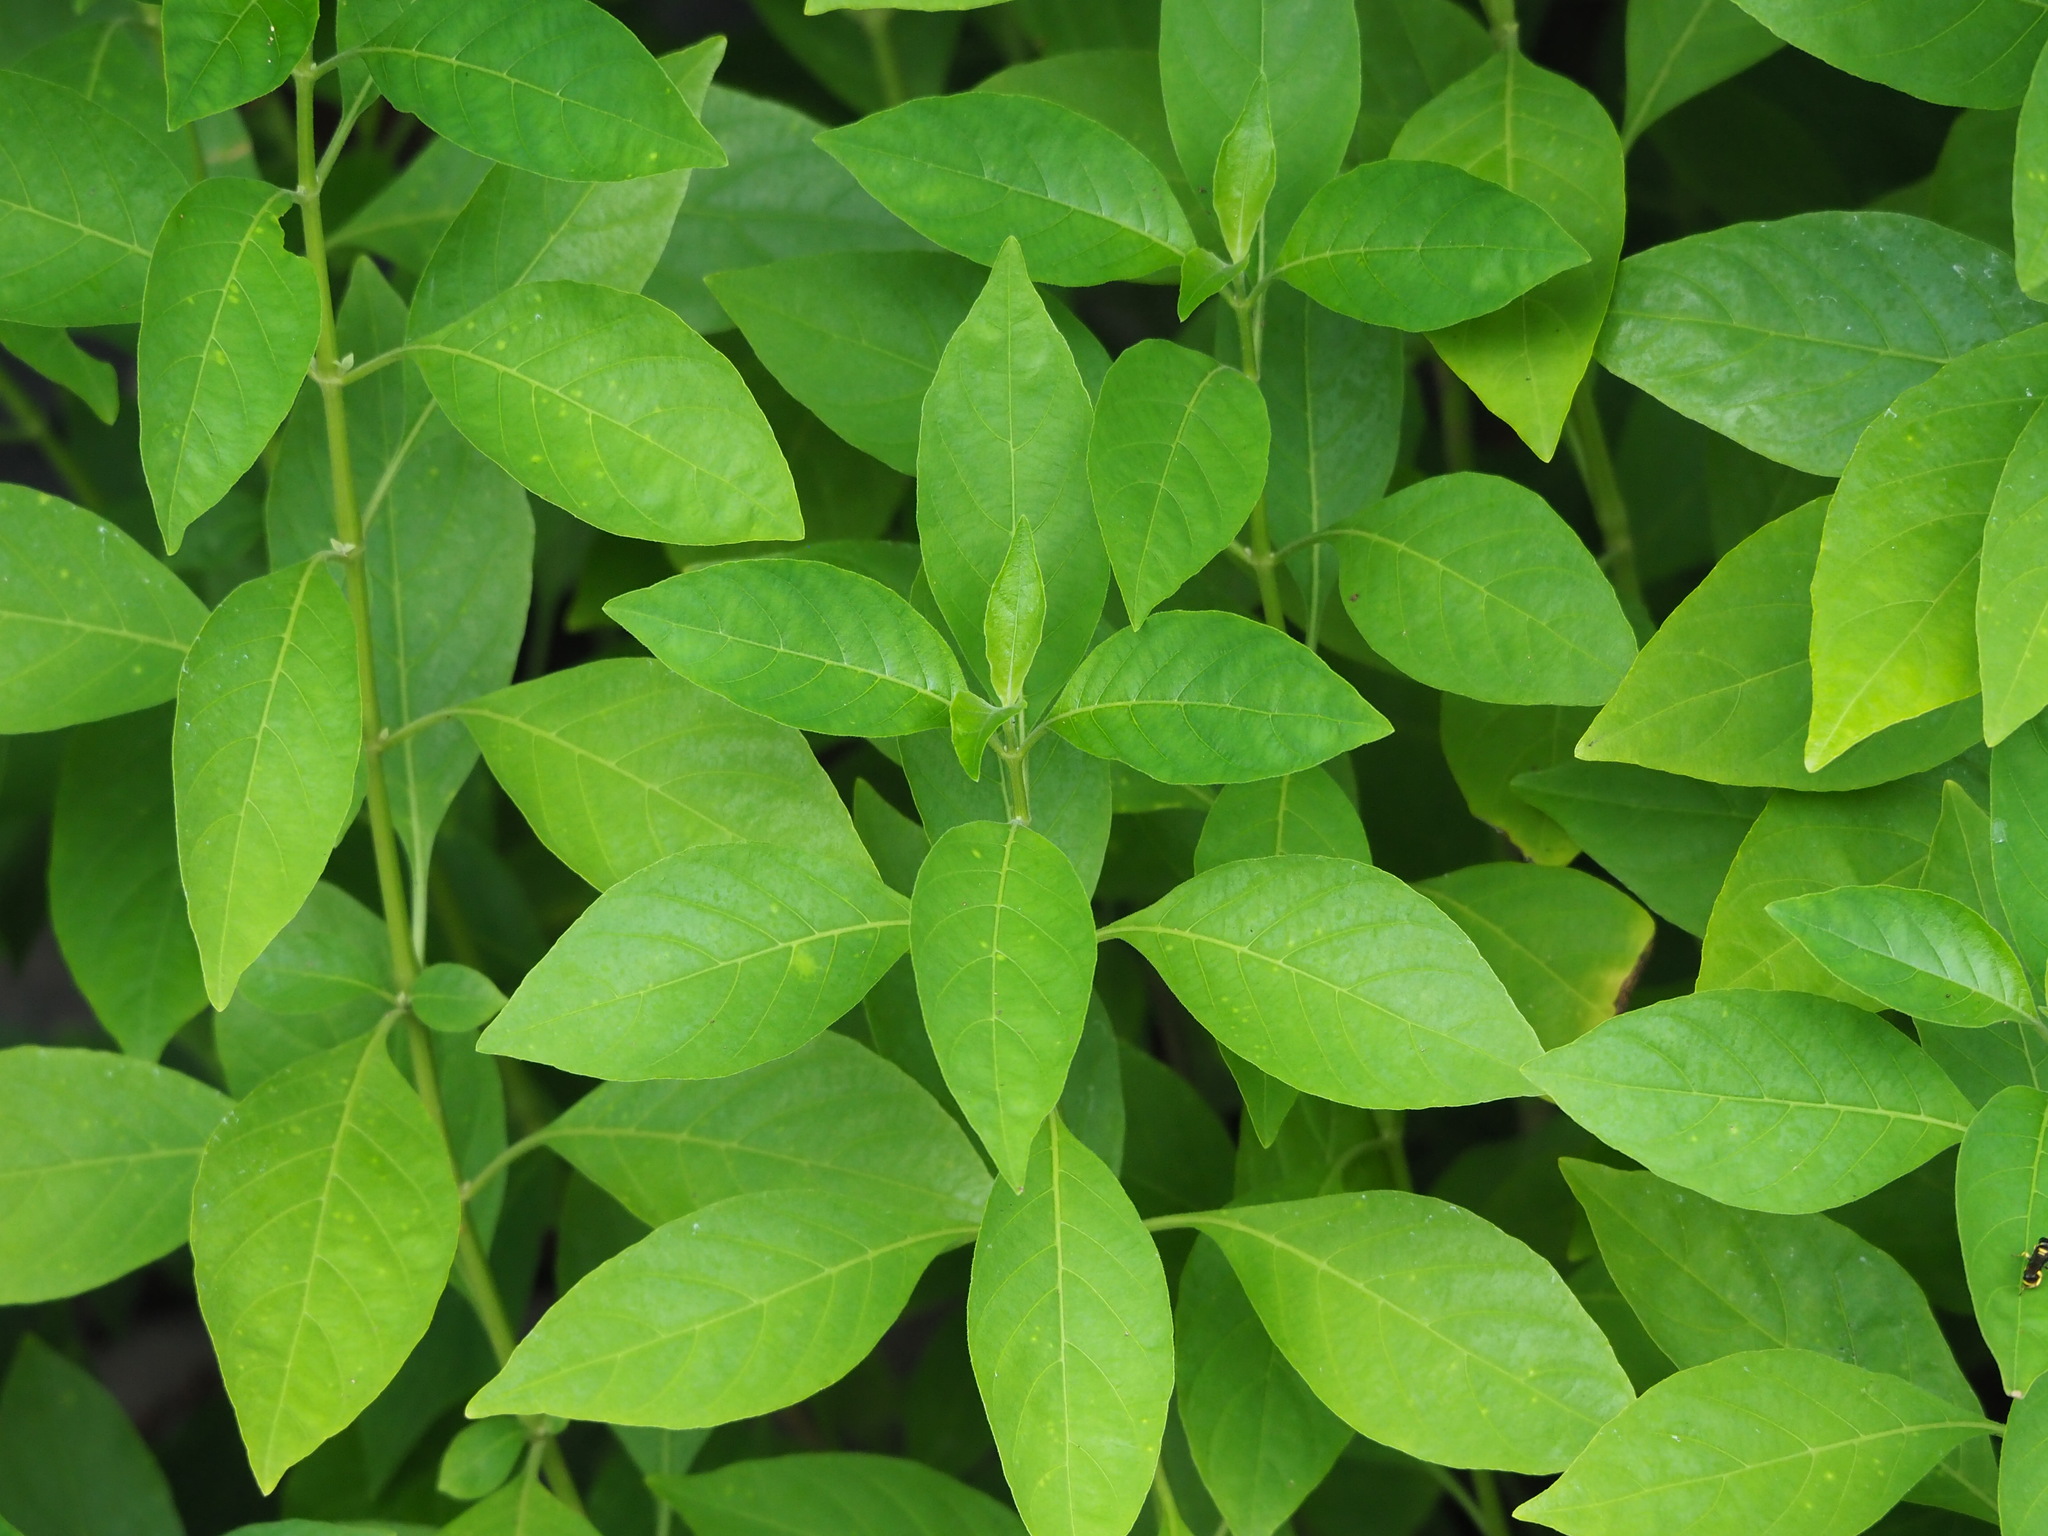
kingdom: Plantae
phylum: Tracheophyta
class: Magnoliopsida
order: Lamiales
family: Acanthaceae
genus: Rhinacanthus
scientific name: Rhinacanthus nasutus
